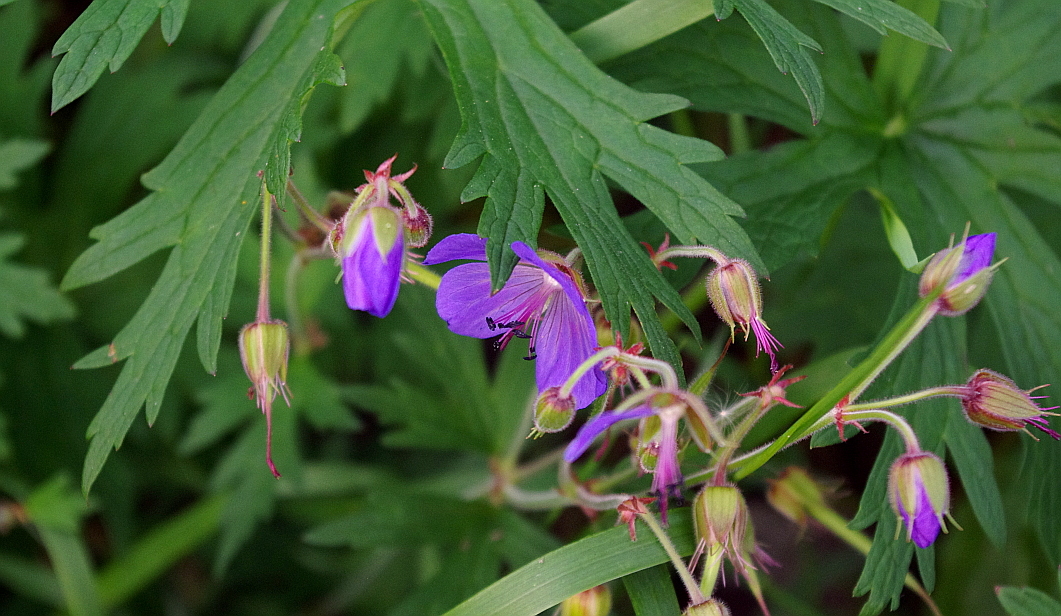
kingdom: Plantae
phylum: Tracheophyta
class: Magnoliopsida
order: Geraniales
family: Geraniaceae
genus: Geranium
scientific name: Geranium pratense
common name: Meadow crane's-bill
